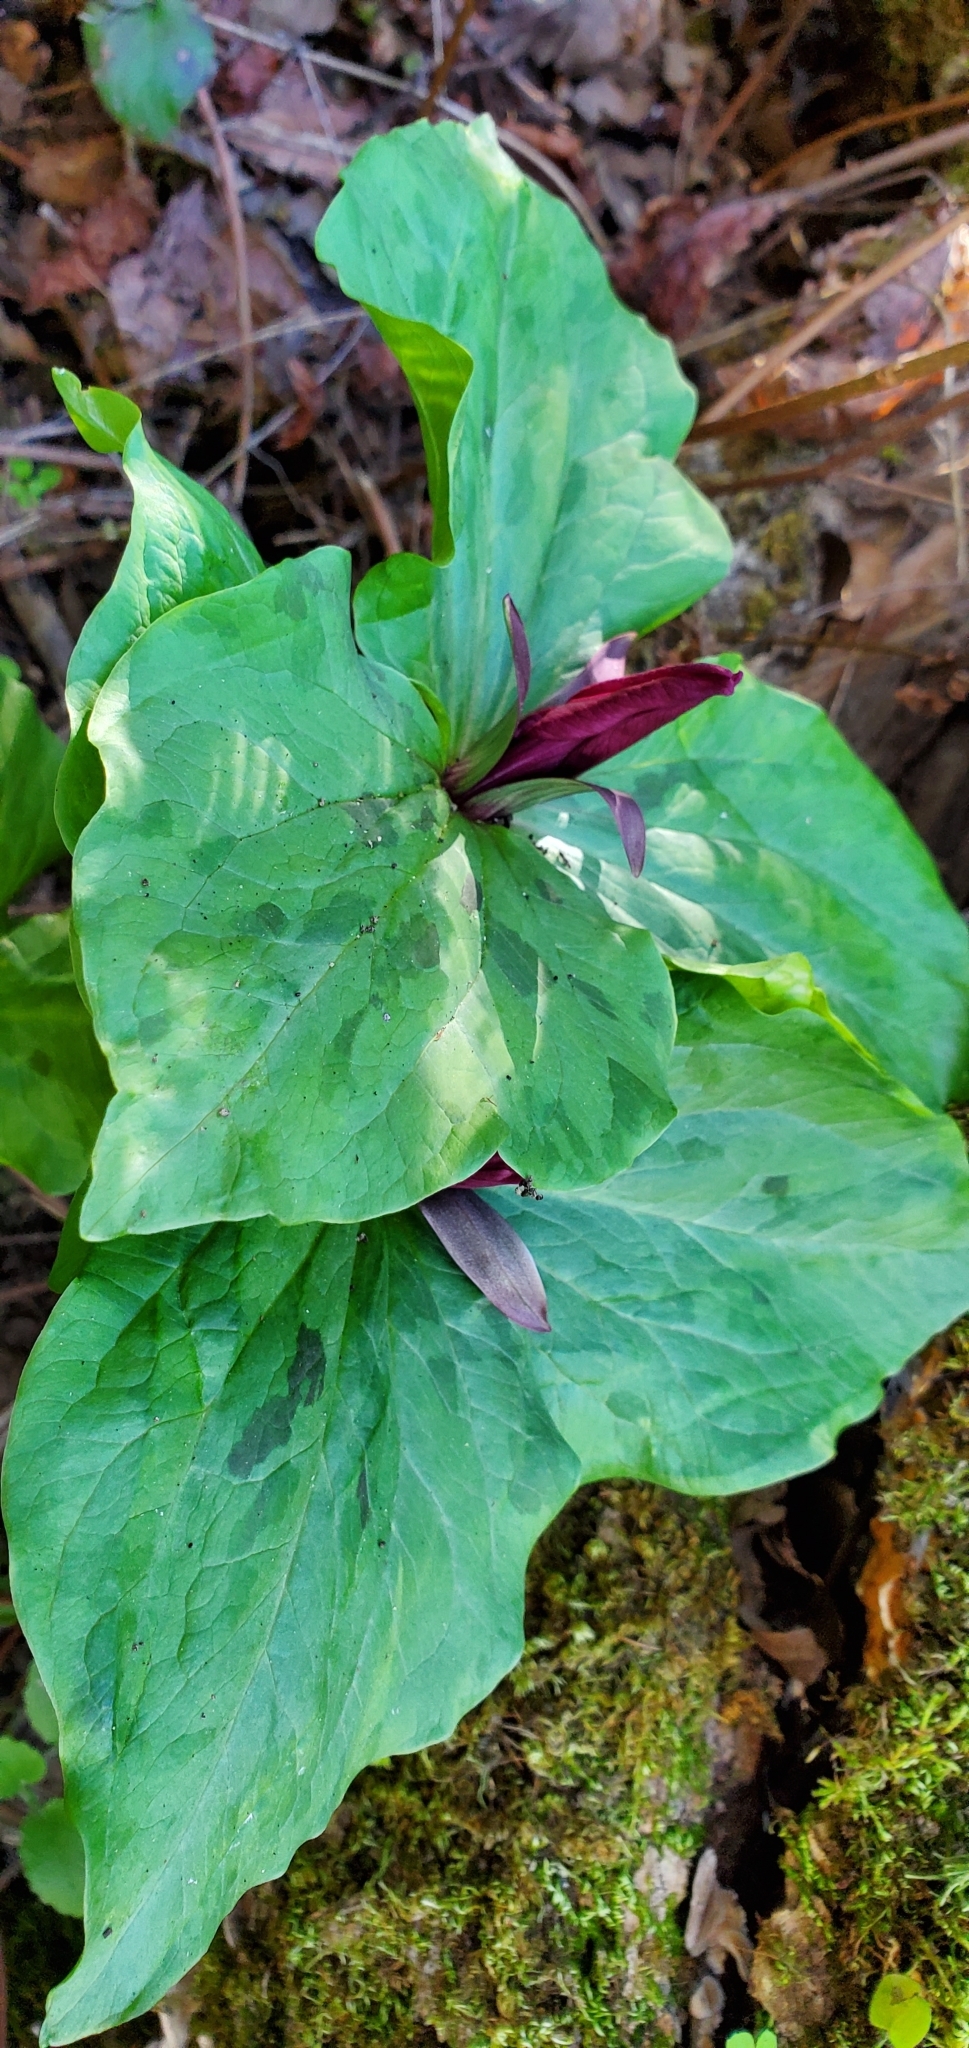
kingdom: Plantae
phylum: Tracheophyta
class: Liliopsida
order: Liliales
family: Melanthiaceae
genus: Trillium
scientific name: Trillium chloropetalum
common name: Giant trillium
